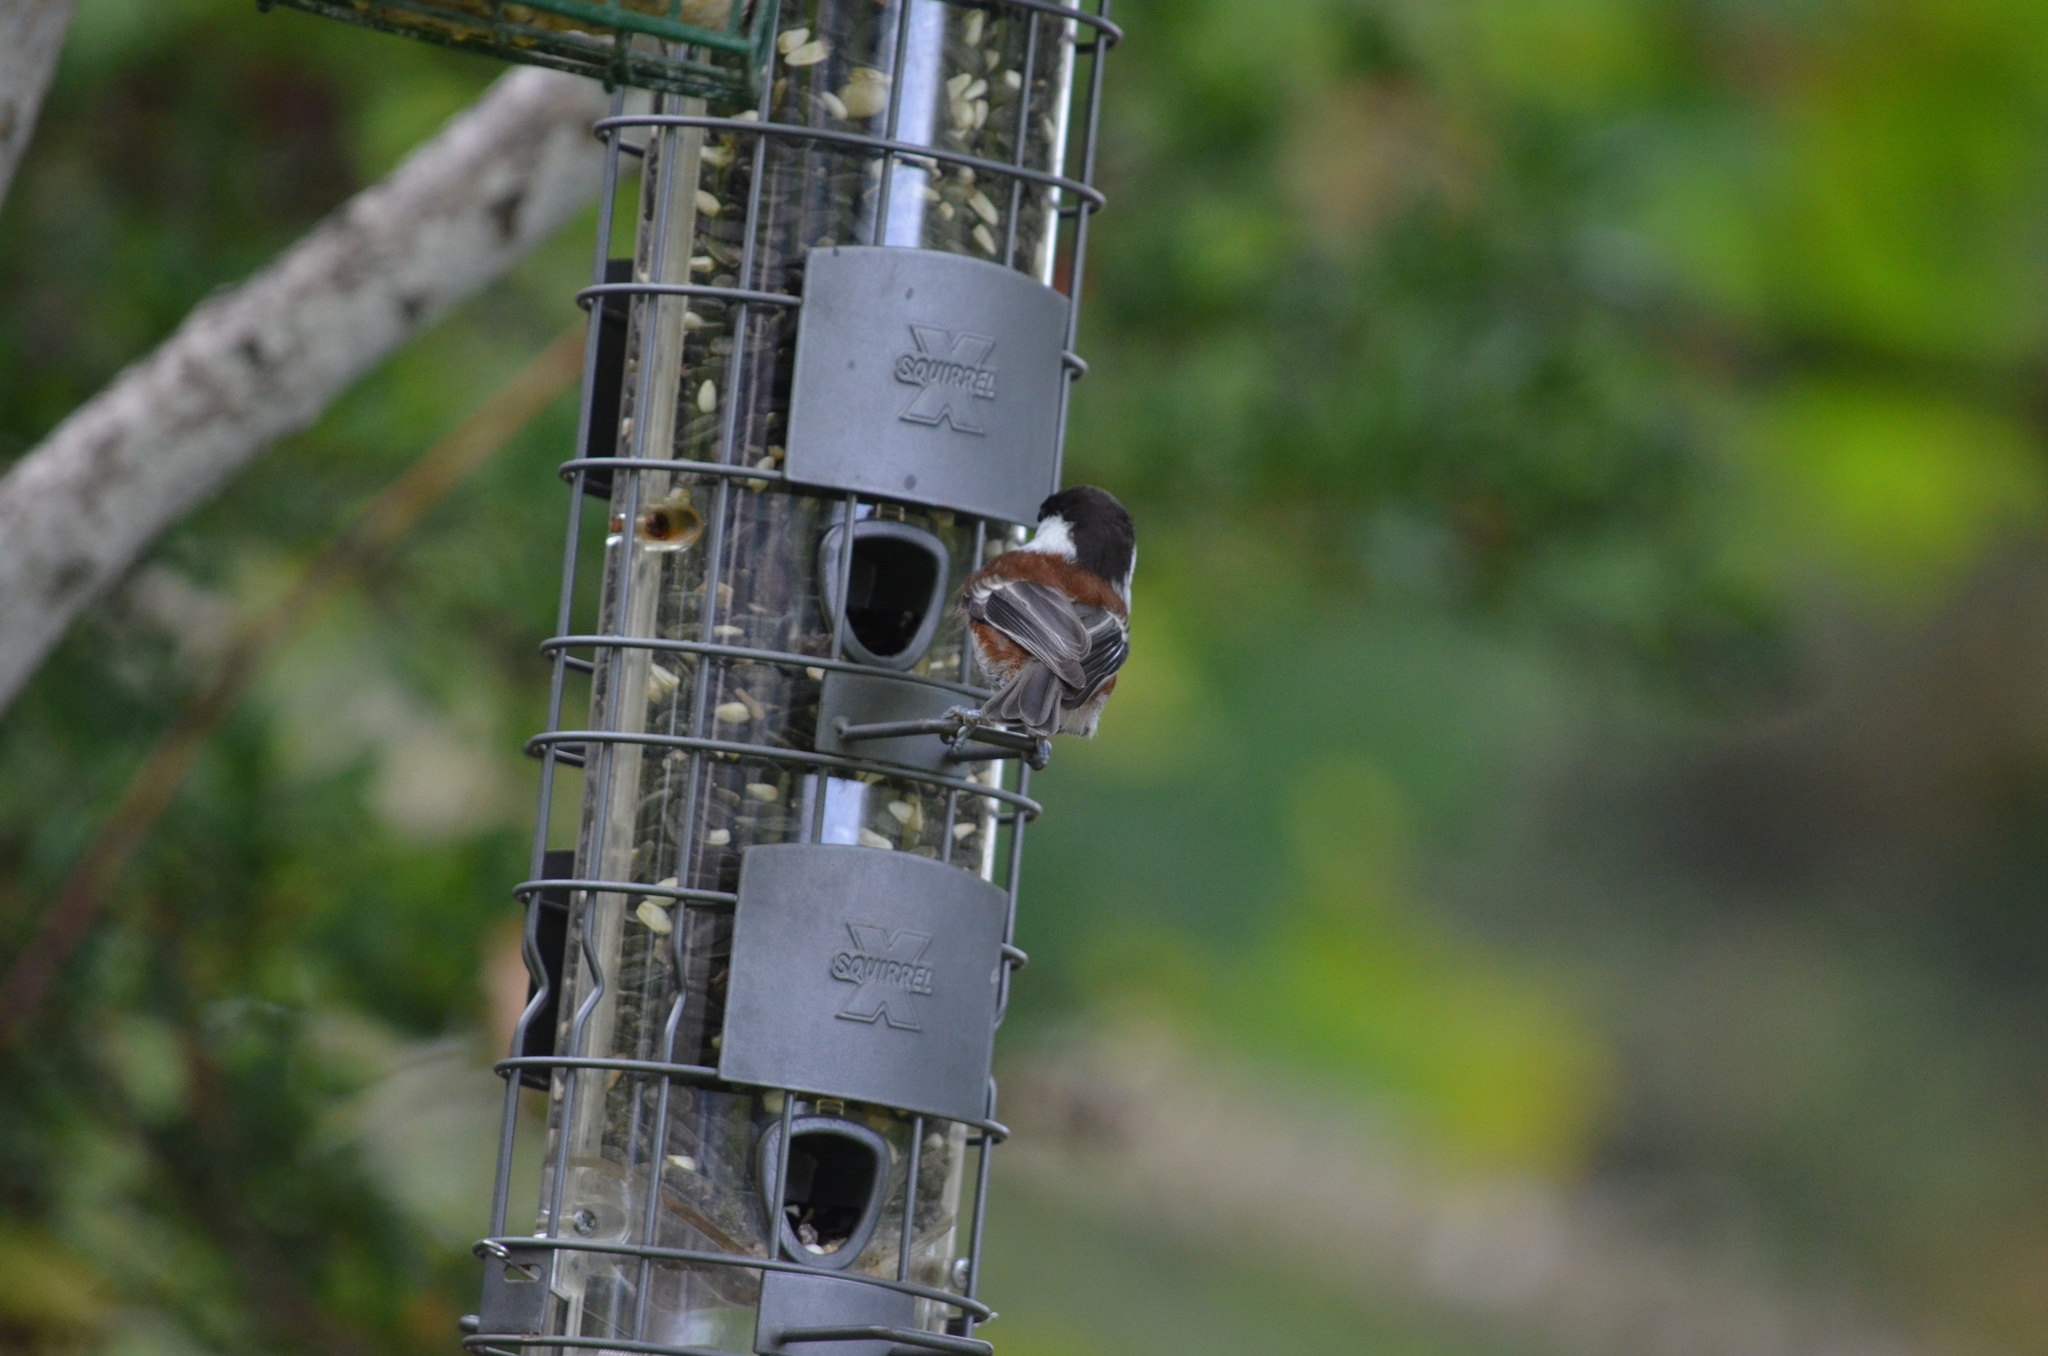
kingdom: Animalia
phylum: Chordata
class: Aves
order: Passeriformes
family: Paridae
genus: Poecile
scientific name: Poecile rufescens
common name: Chestnut-backed chickadee
